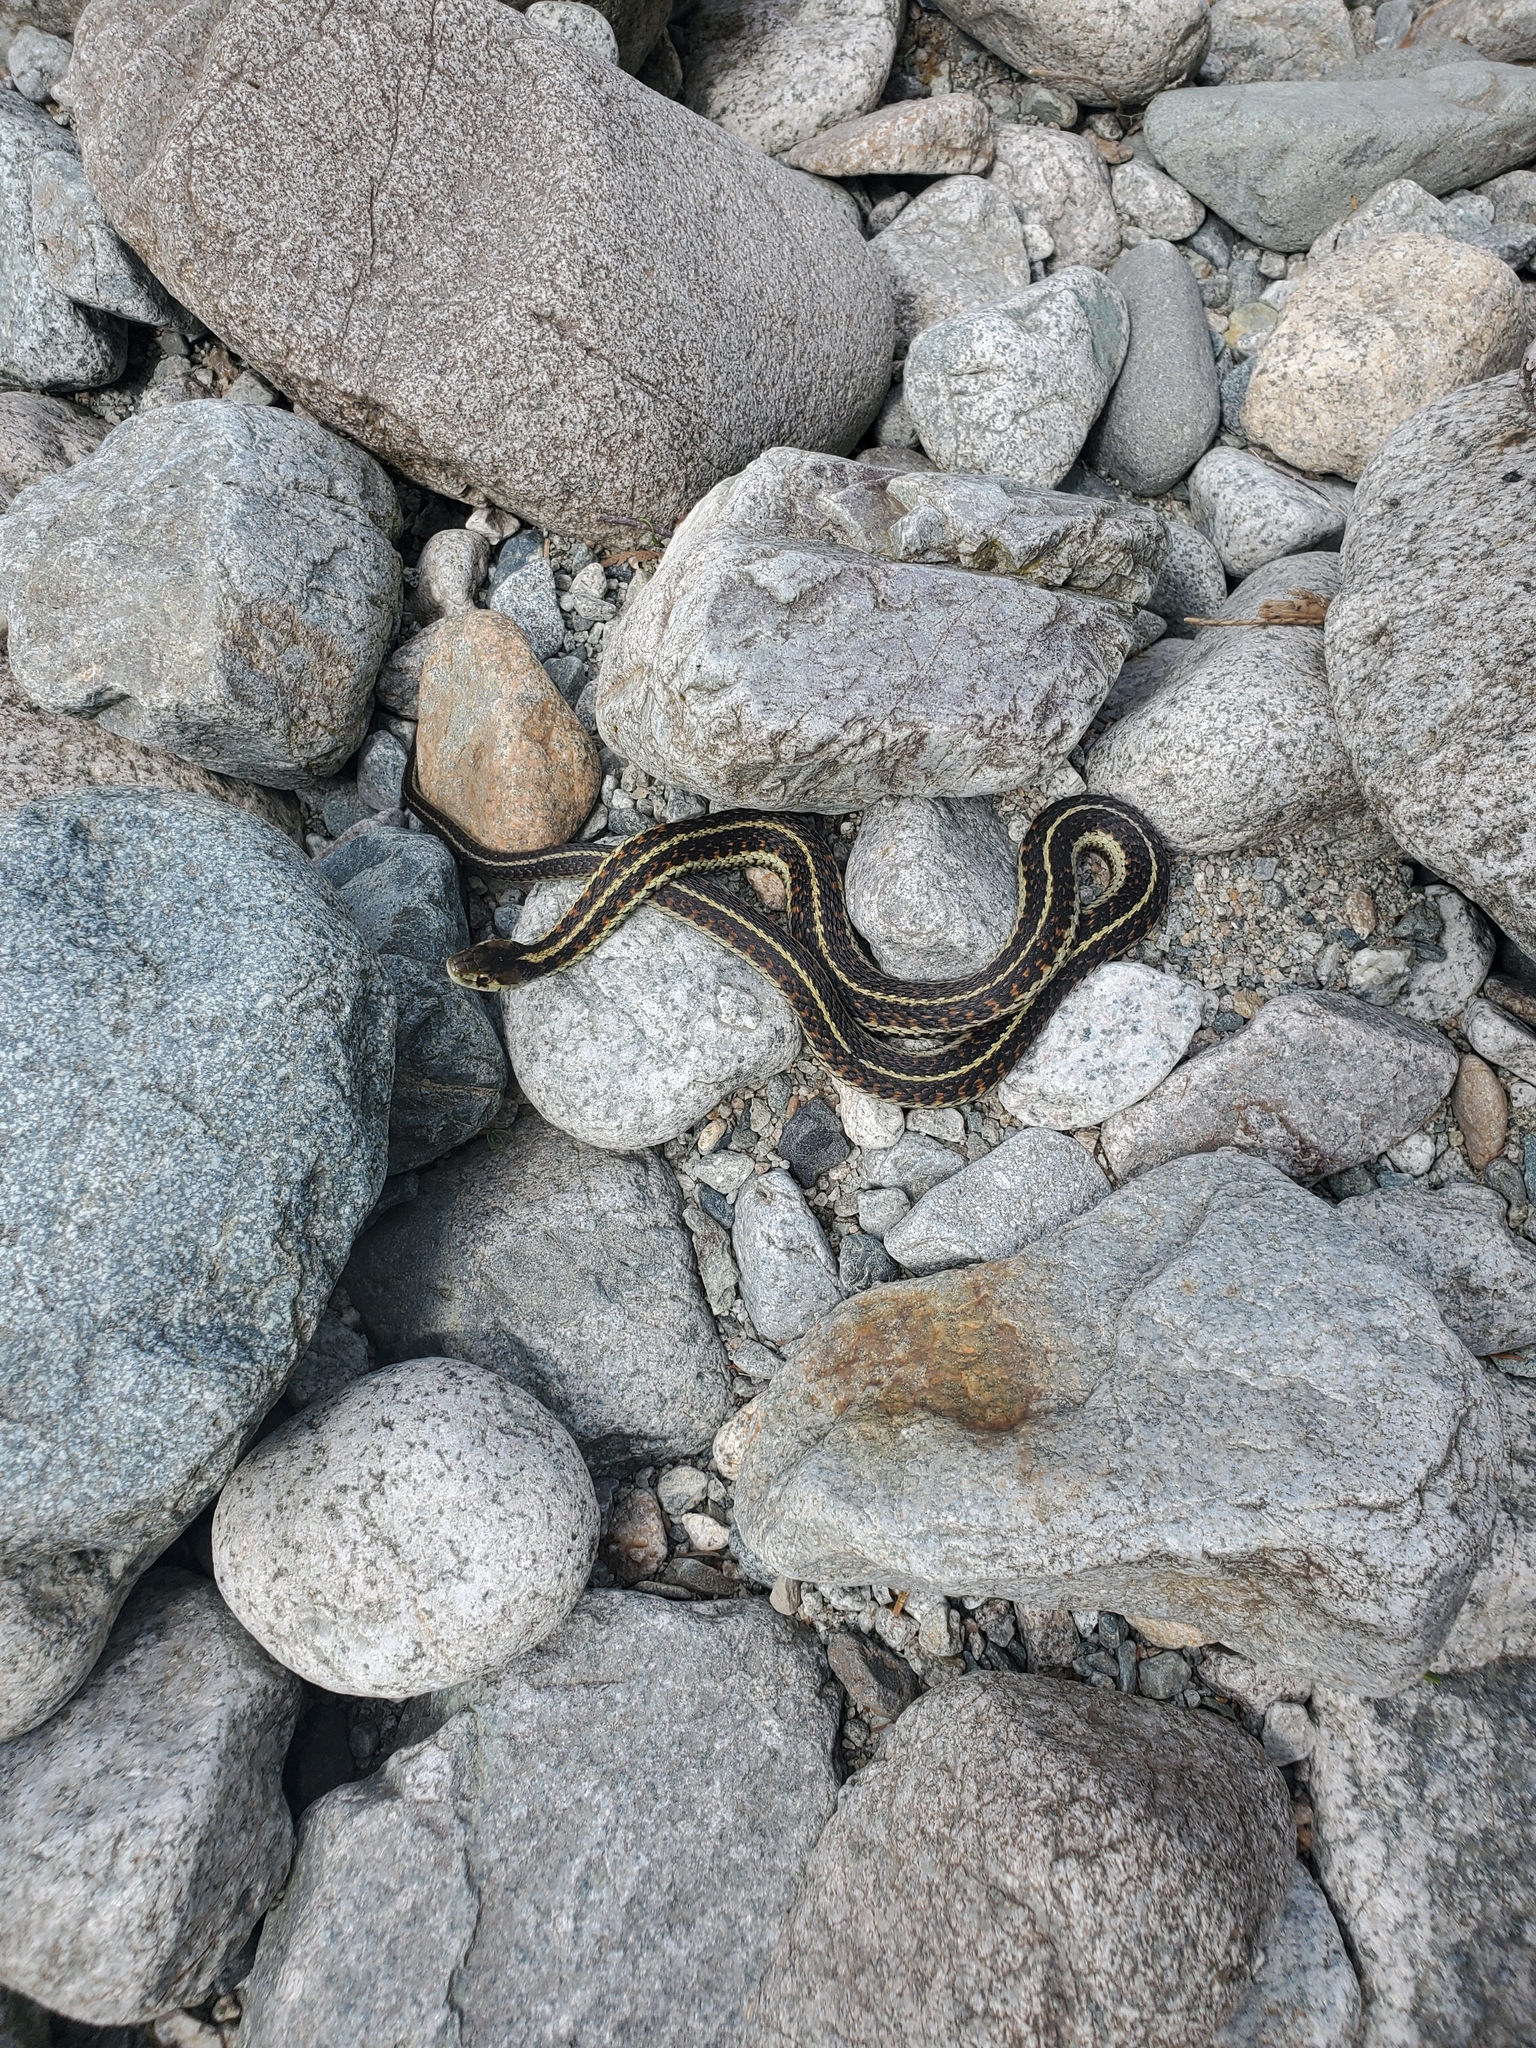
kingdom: Animalia
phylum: Chordata
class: Squamata
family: Colubridae
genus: Thamnophis
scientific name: Thamnophis sirtalis
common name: Common garter snake
